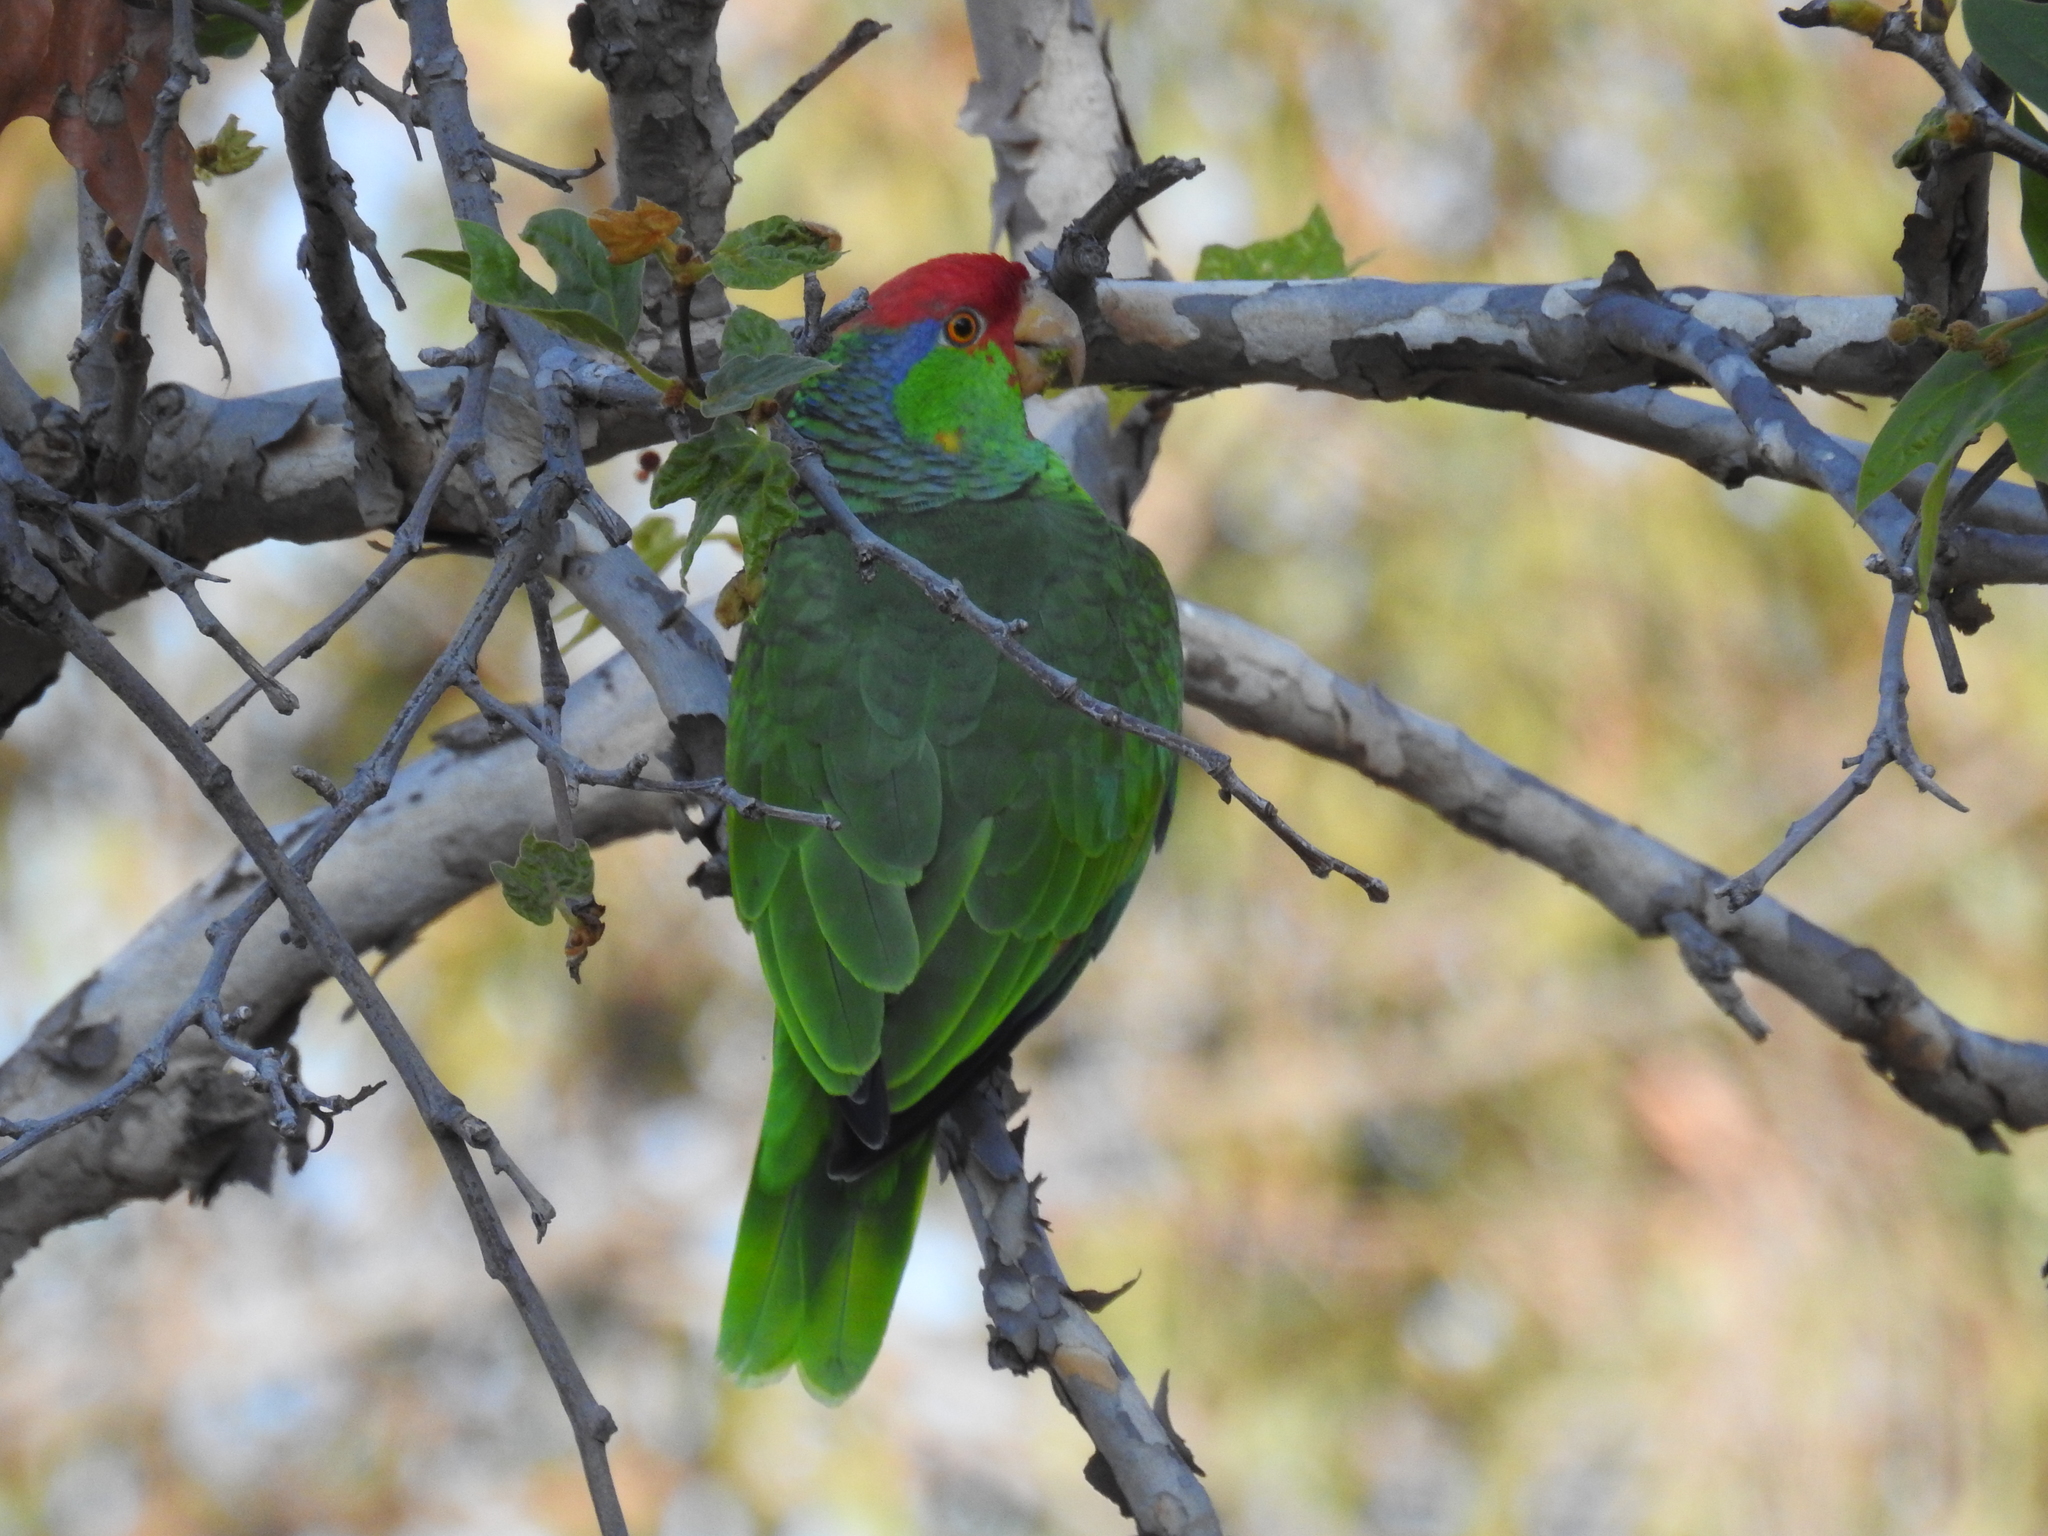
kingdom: Animalia
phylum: Chordata
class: Aves
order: Psittaciformes
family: Psittacidae
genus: Amazona
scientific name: Amazona viridigenalis
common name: Red-crowned amazon
